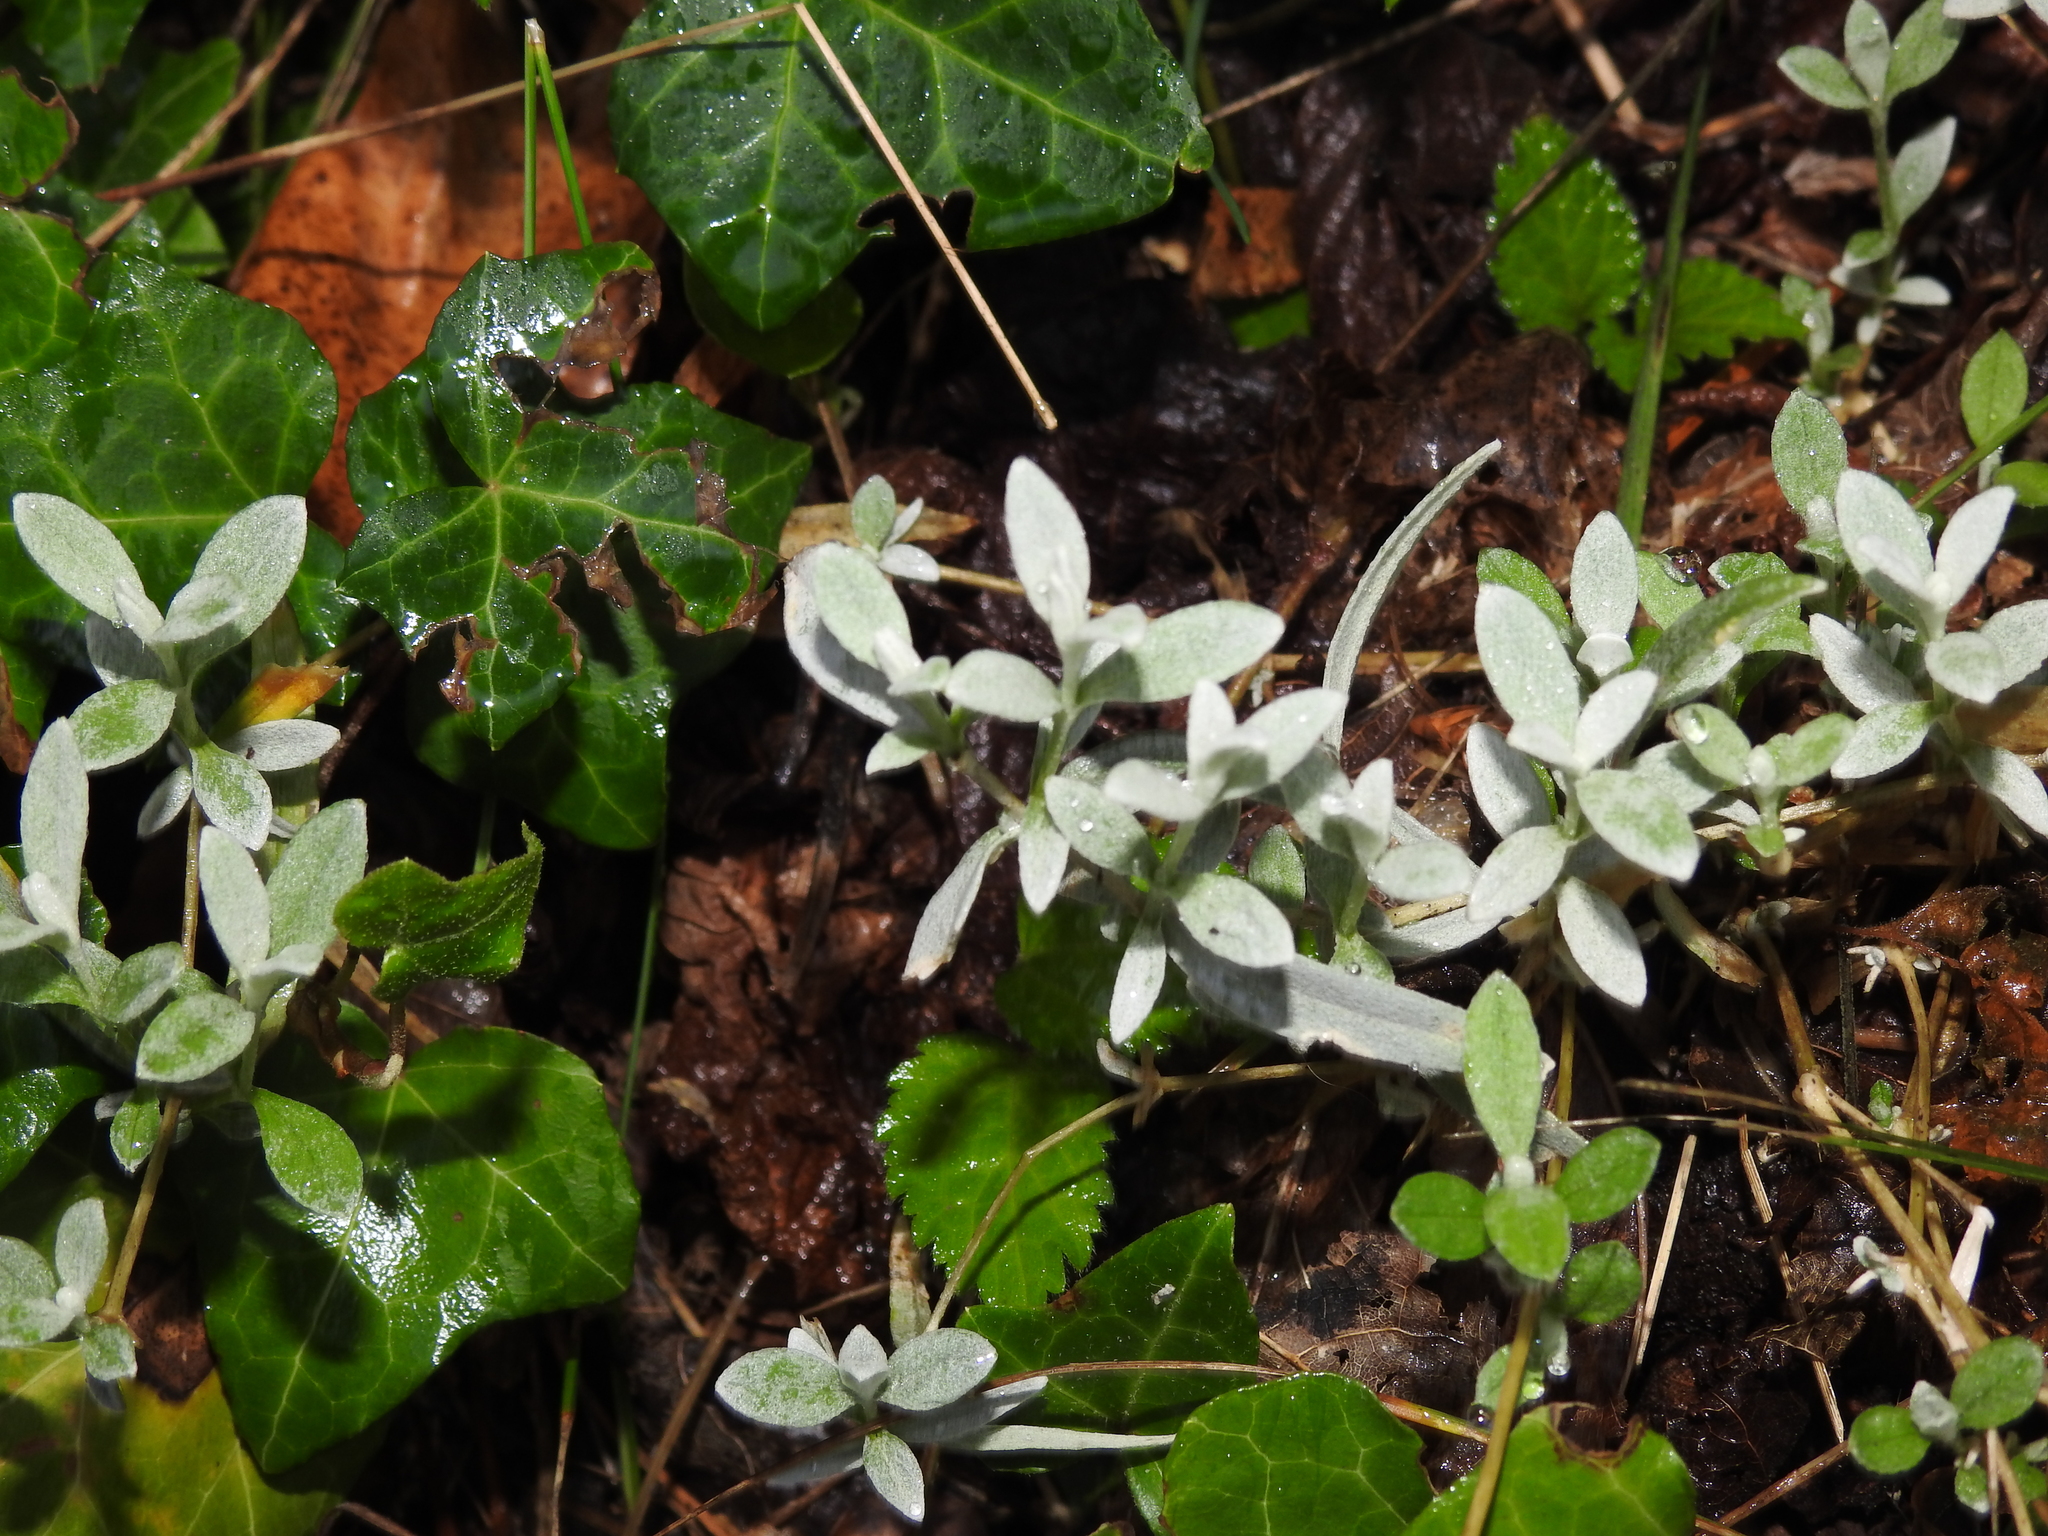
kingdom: Plantae
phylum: Tracheophyta
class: Magnoliopsida
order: Caryophyllales
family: Caryophyllaceae
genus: Cerastium
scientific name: Cerastium tomentosum
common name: Snow-in-summer
